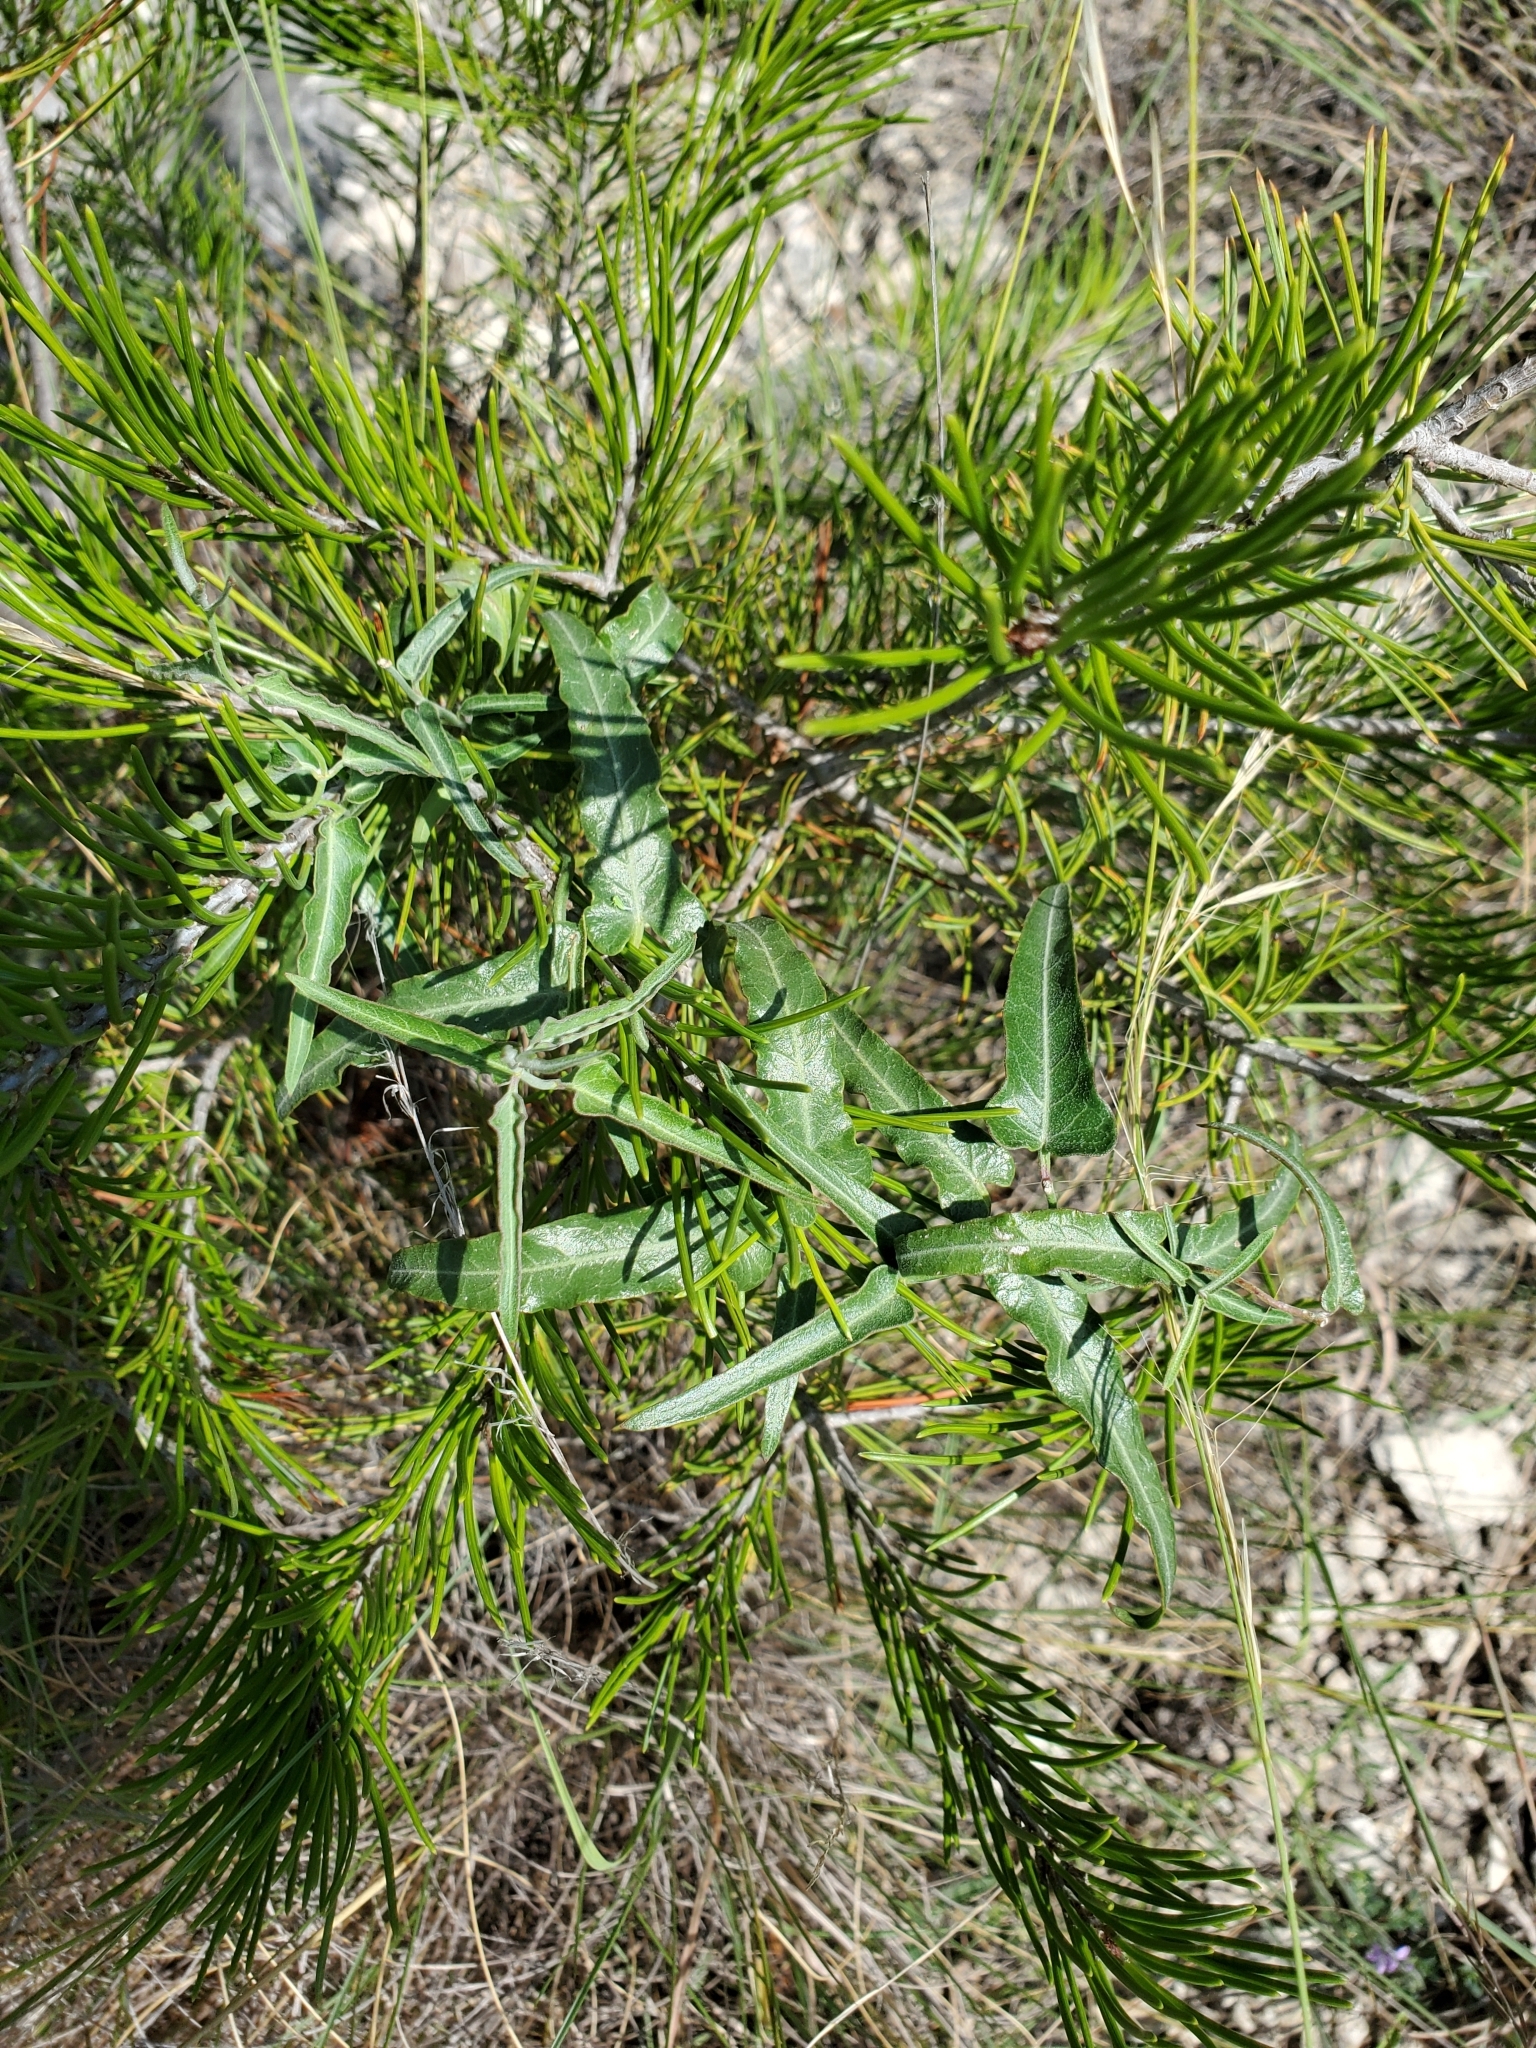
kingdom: Plantae
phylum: Tracheophyta
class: Magnoliopsida
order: Gentianales
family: Apocynaceae
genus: Funastrum
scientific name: Funastrum crispum
